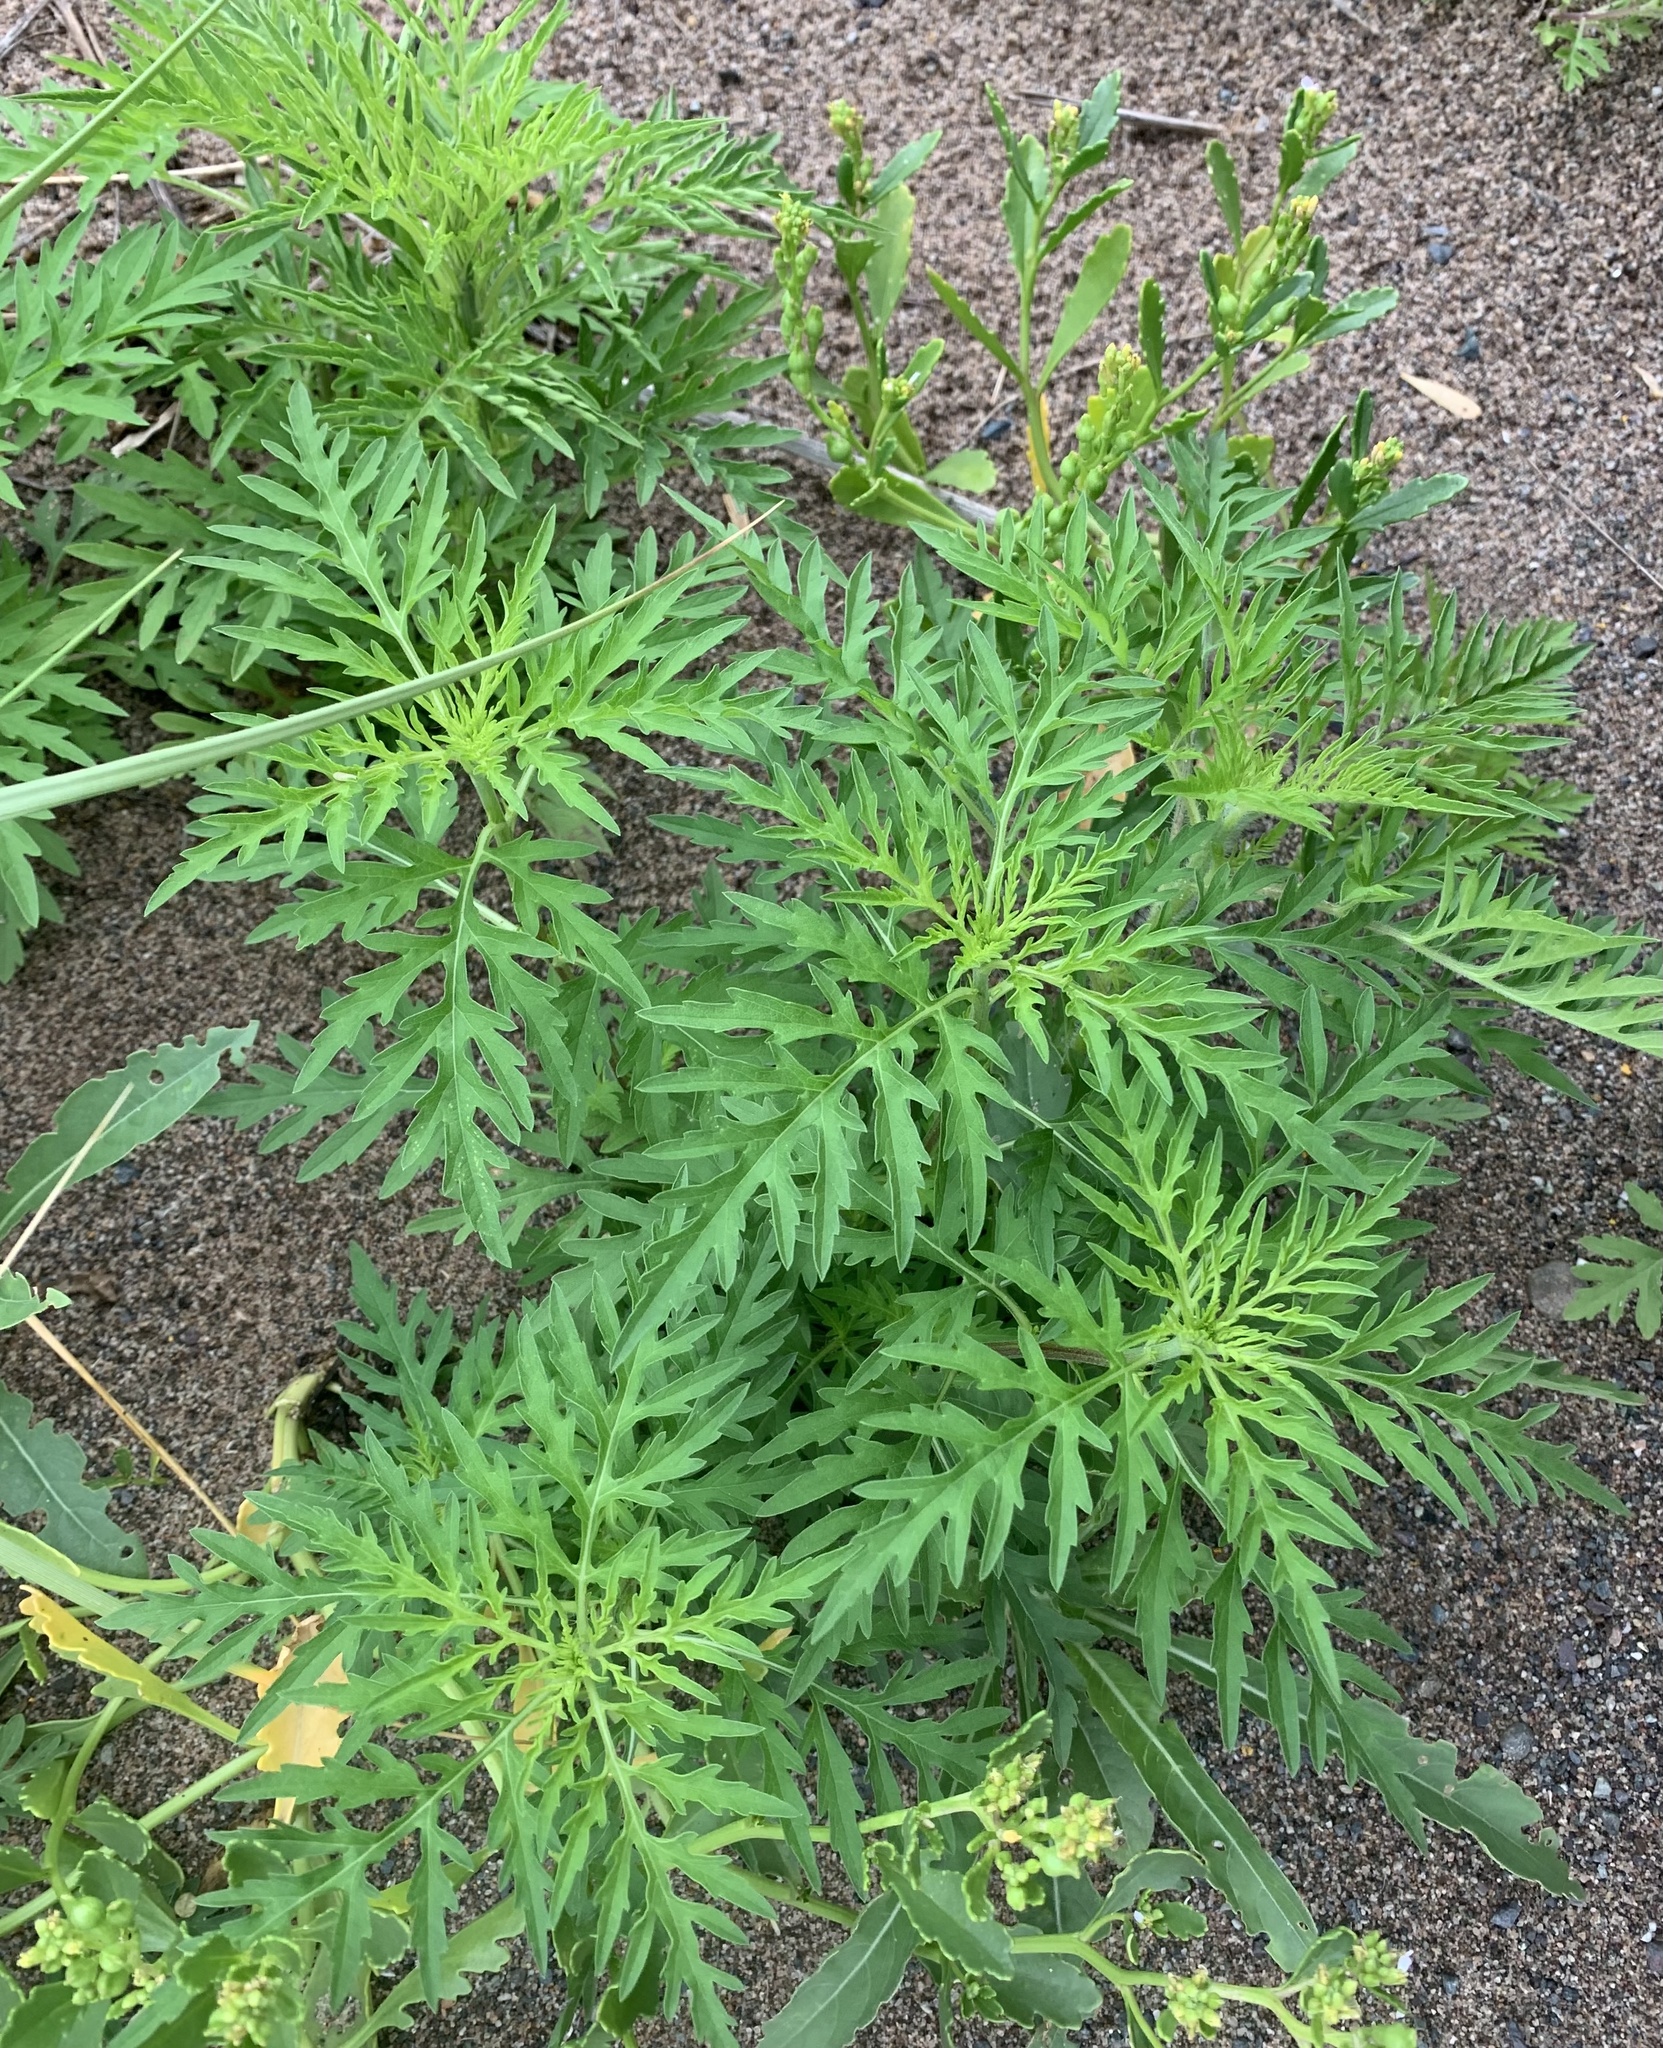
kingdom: Plantae
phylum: Tracheophyta
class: Magnoliopsida
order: Asterales
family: Asteraceae
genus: Ambrosia
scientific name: Ambrosia artemisiifolia
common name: Annual ragweed
